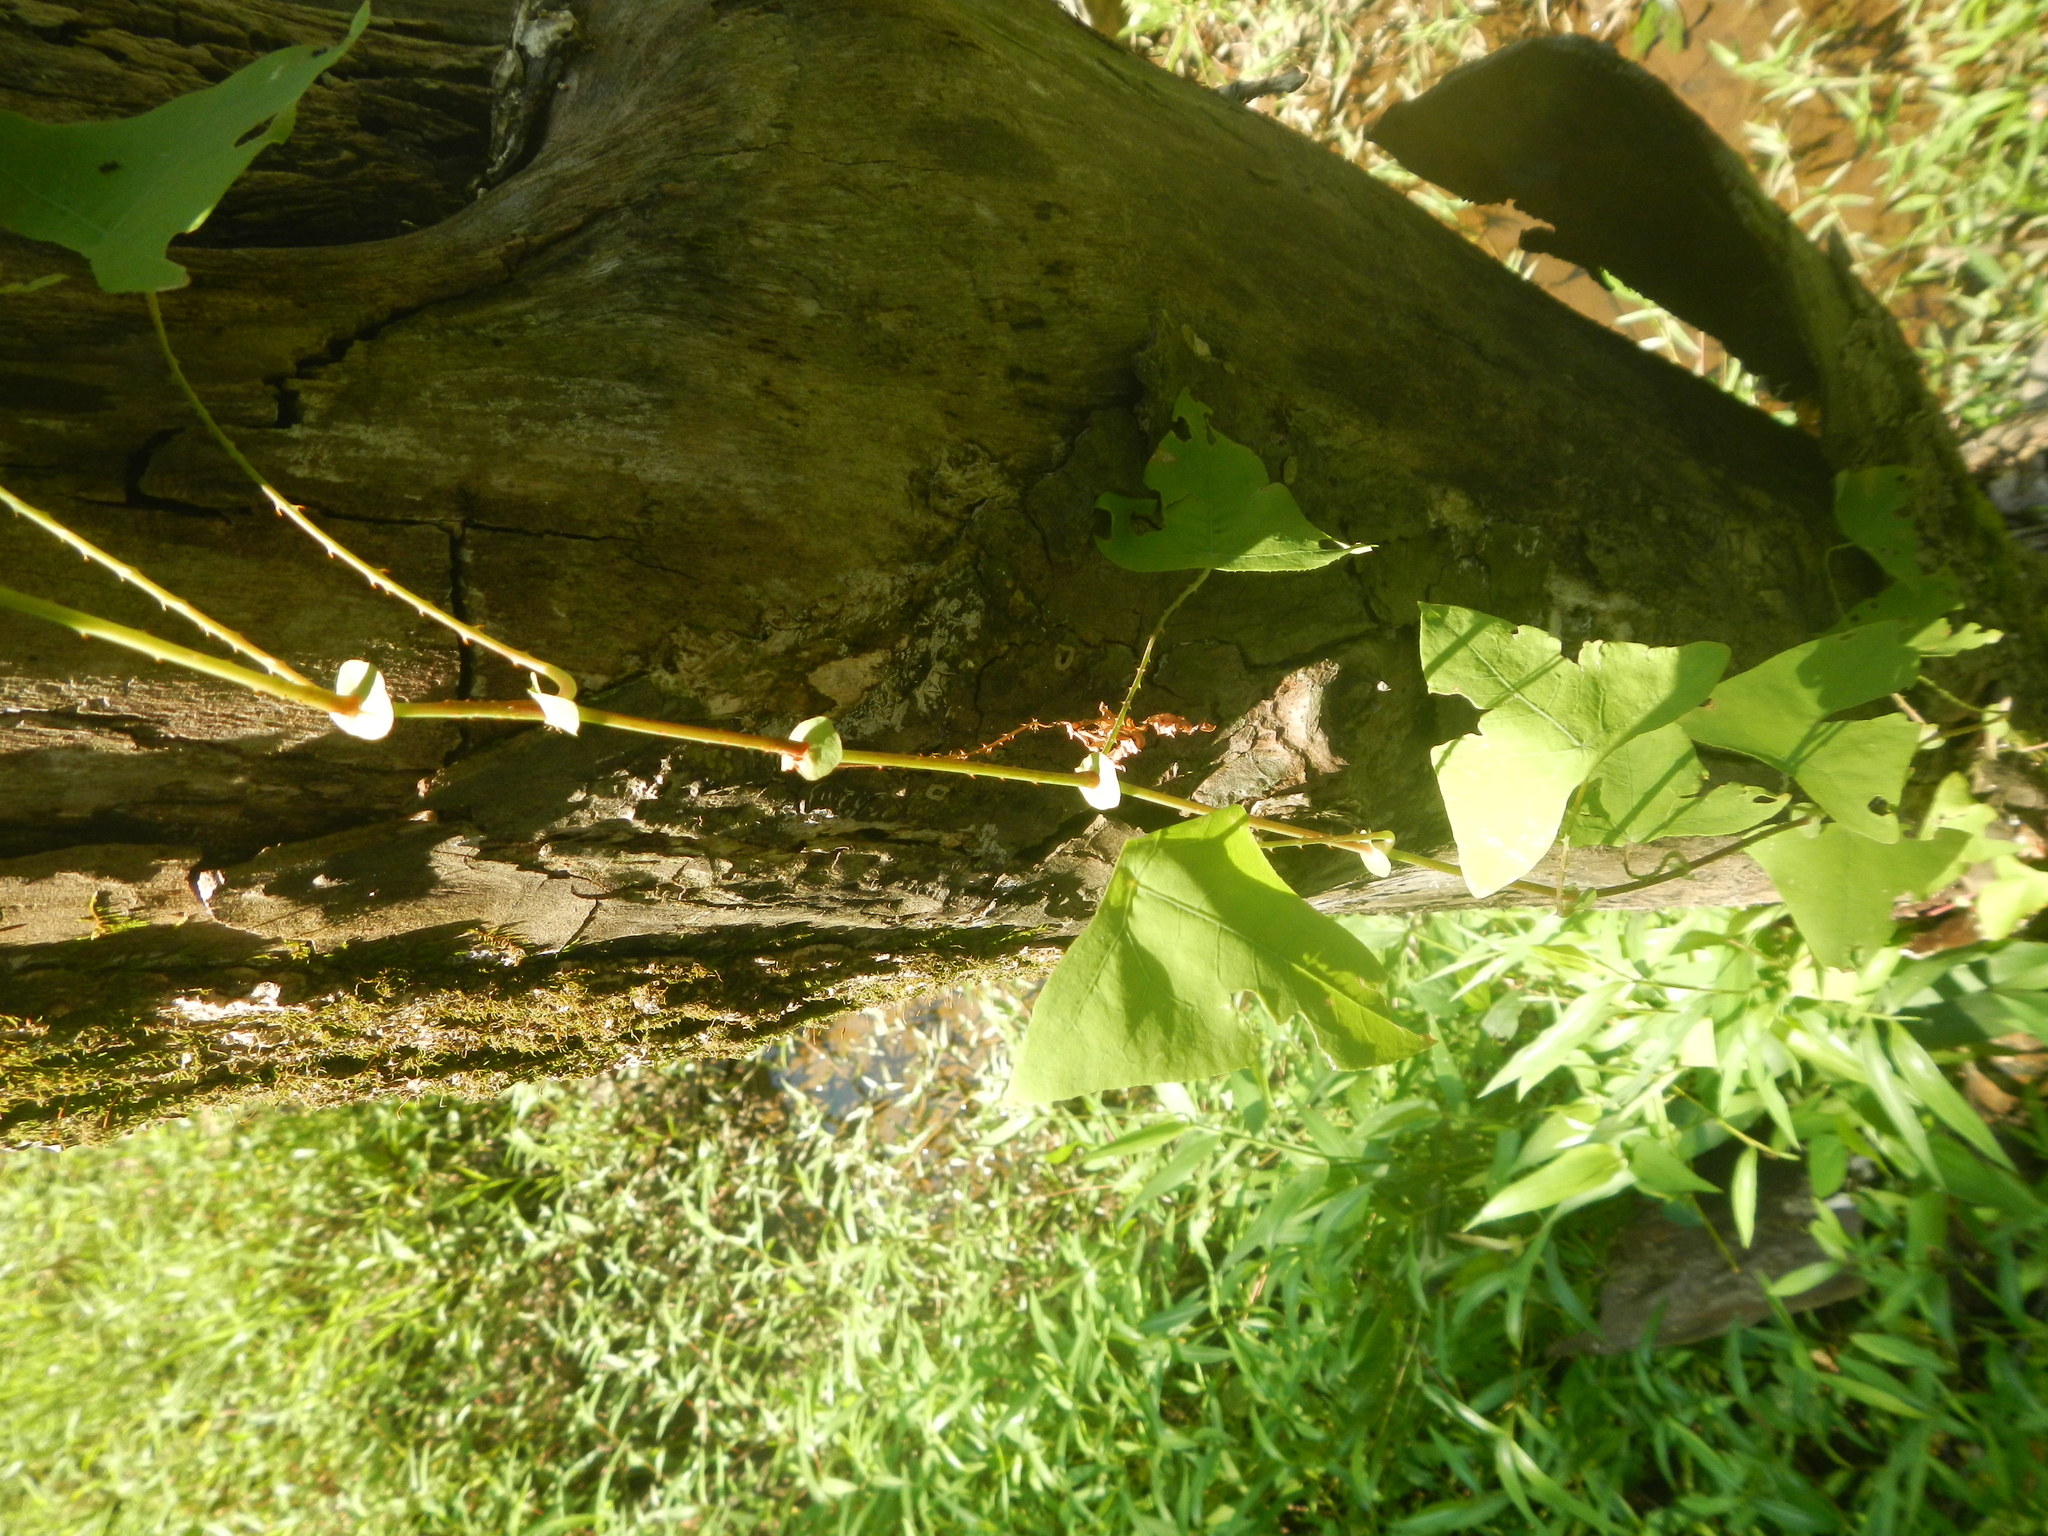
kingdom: Plantae
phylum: Tracheophyta
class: Magnoliopsida
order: Caryophyllales
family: Polygonaceae
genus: Persicaria
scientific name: Persicaria perfoliata
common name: Asiatic tearthumb
